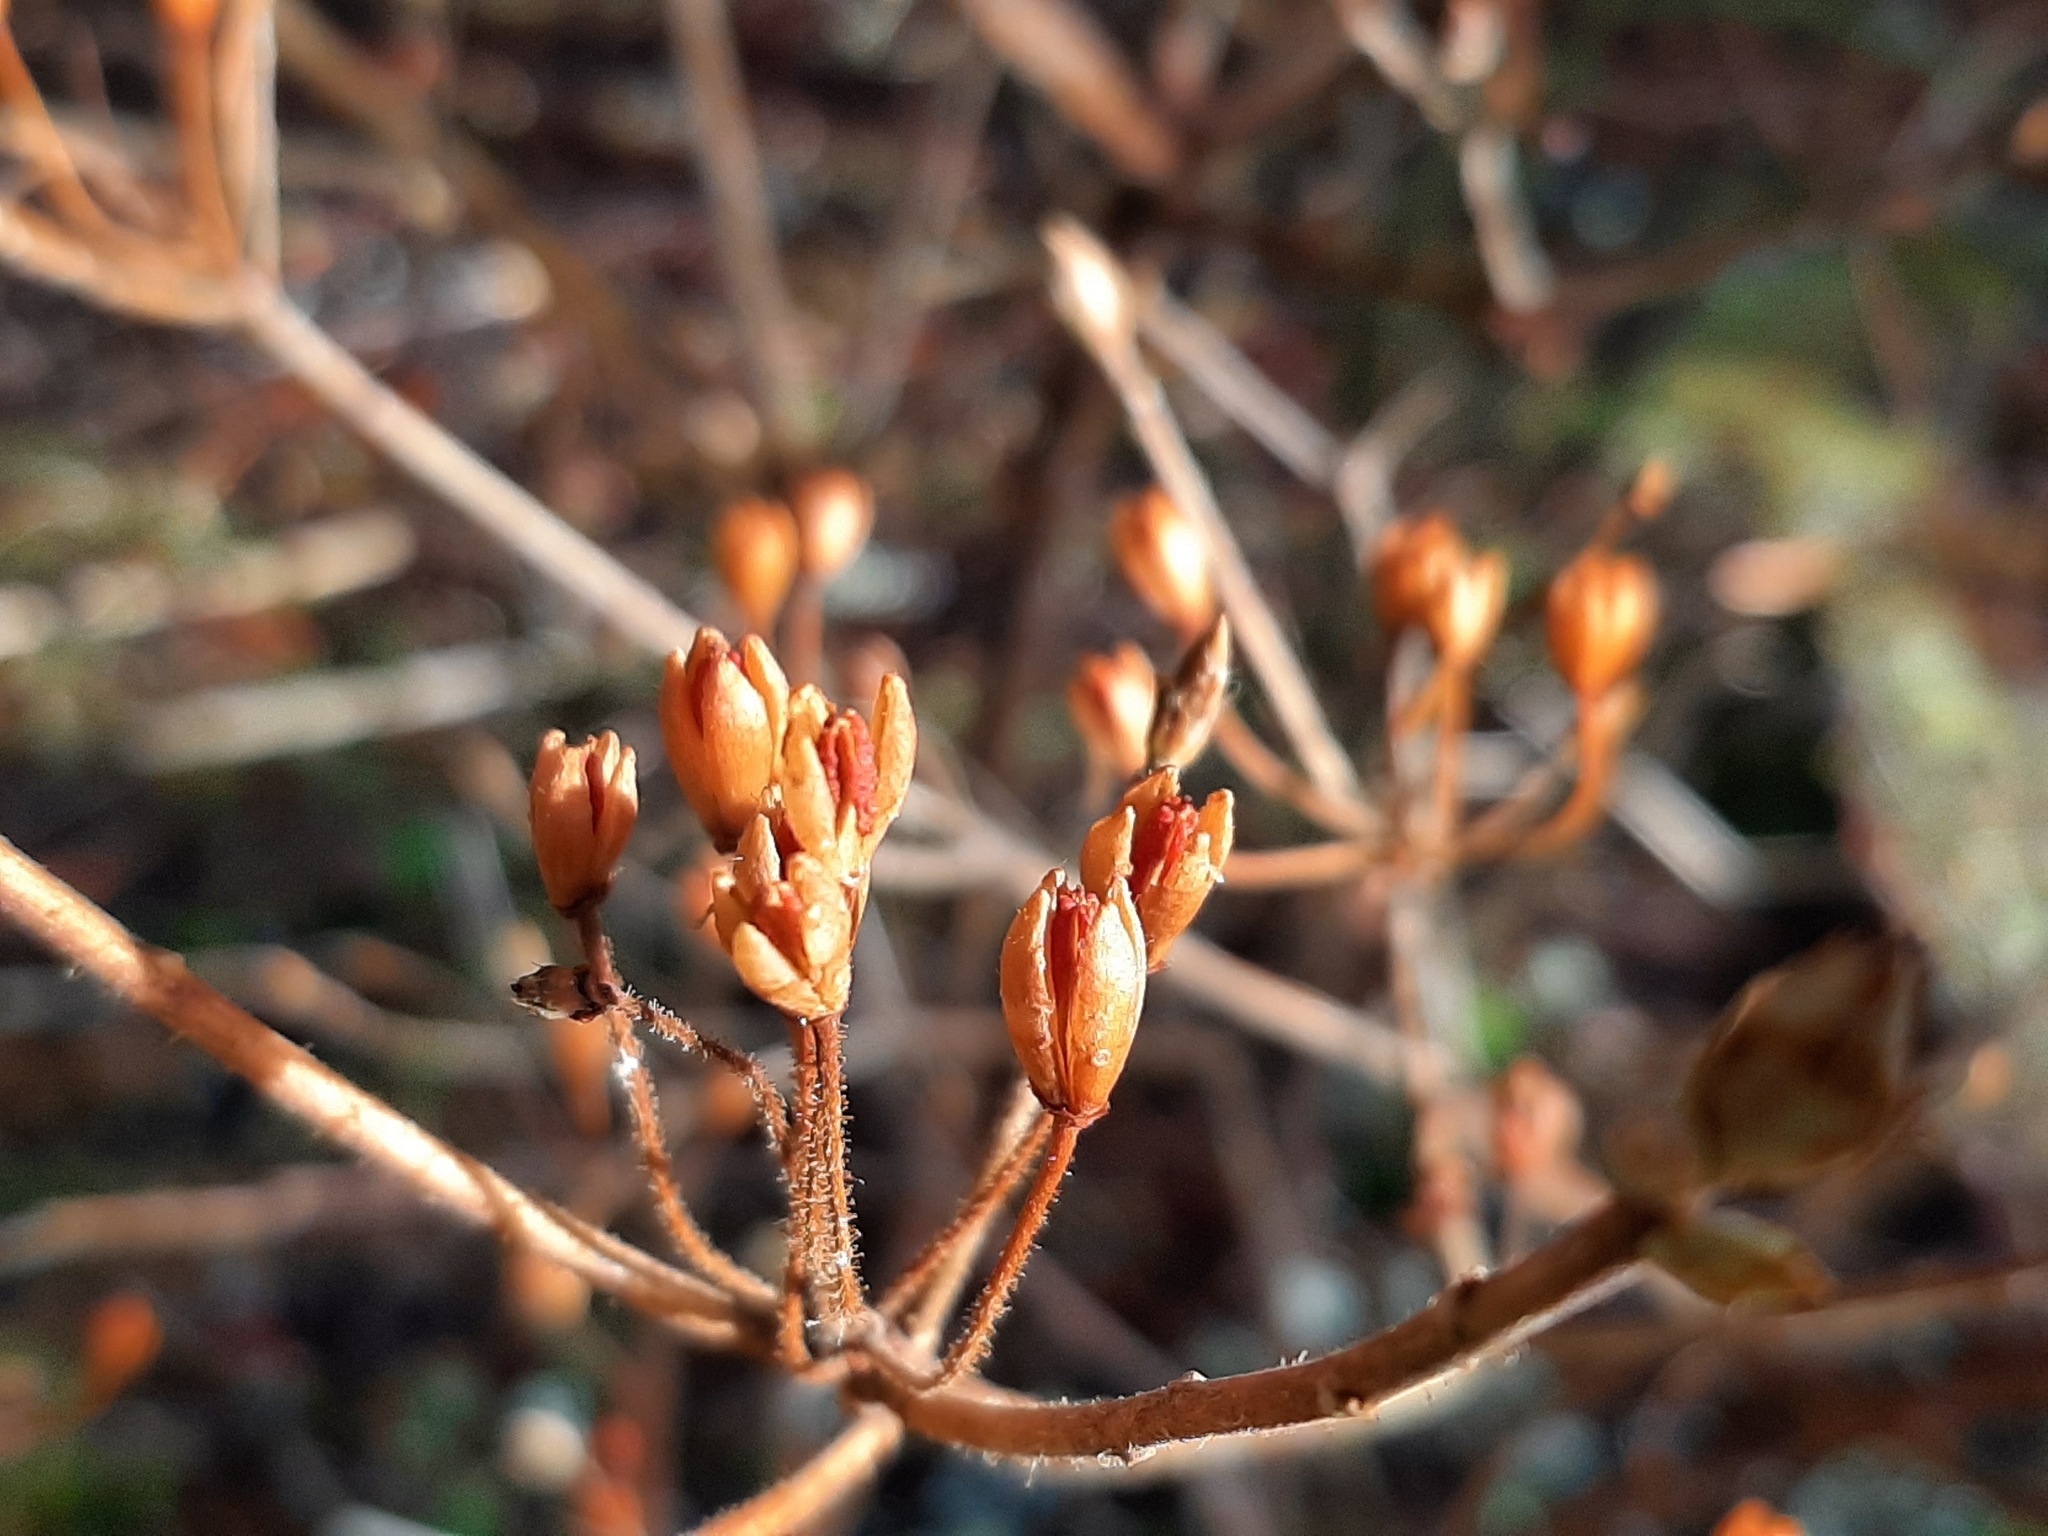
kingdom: Plantae
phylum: Tracheophyta
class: Magnoliopsida
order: Ericales
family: Ericaceae
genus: Rhododendron
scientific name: Rhododendron menziesii
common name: Pacific menziesia
